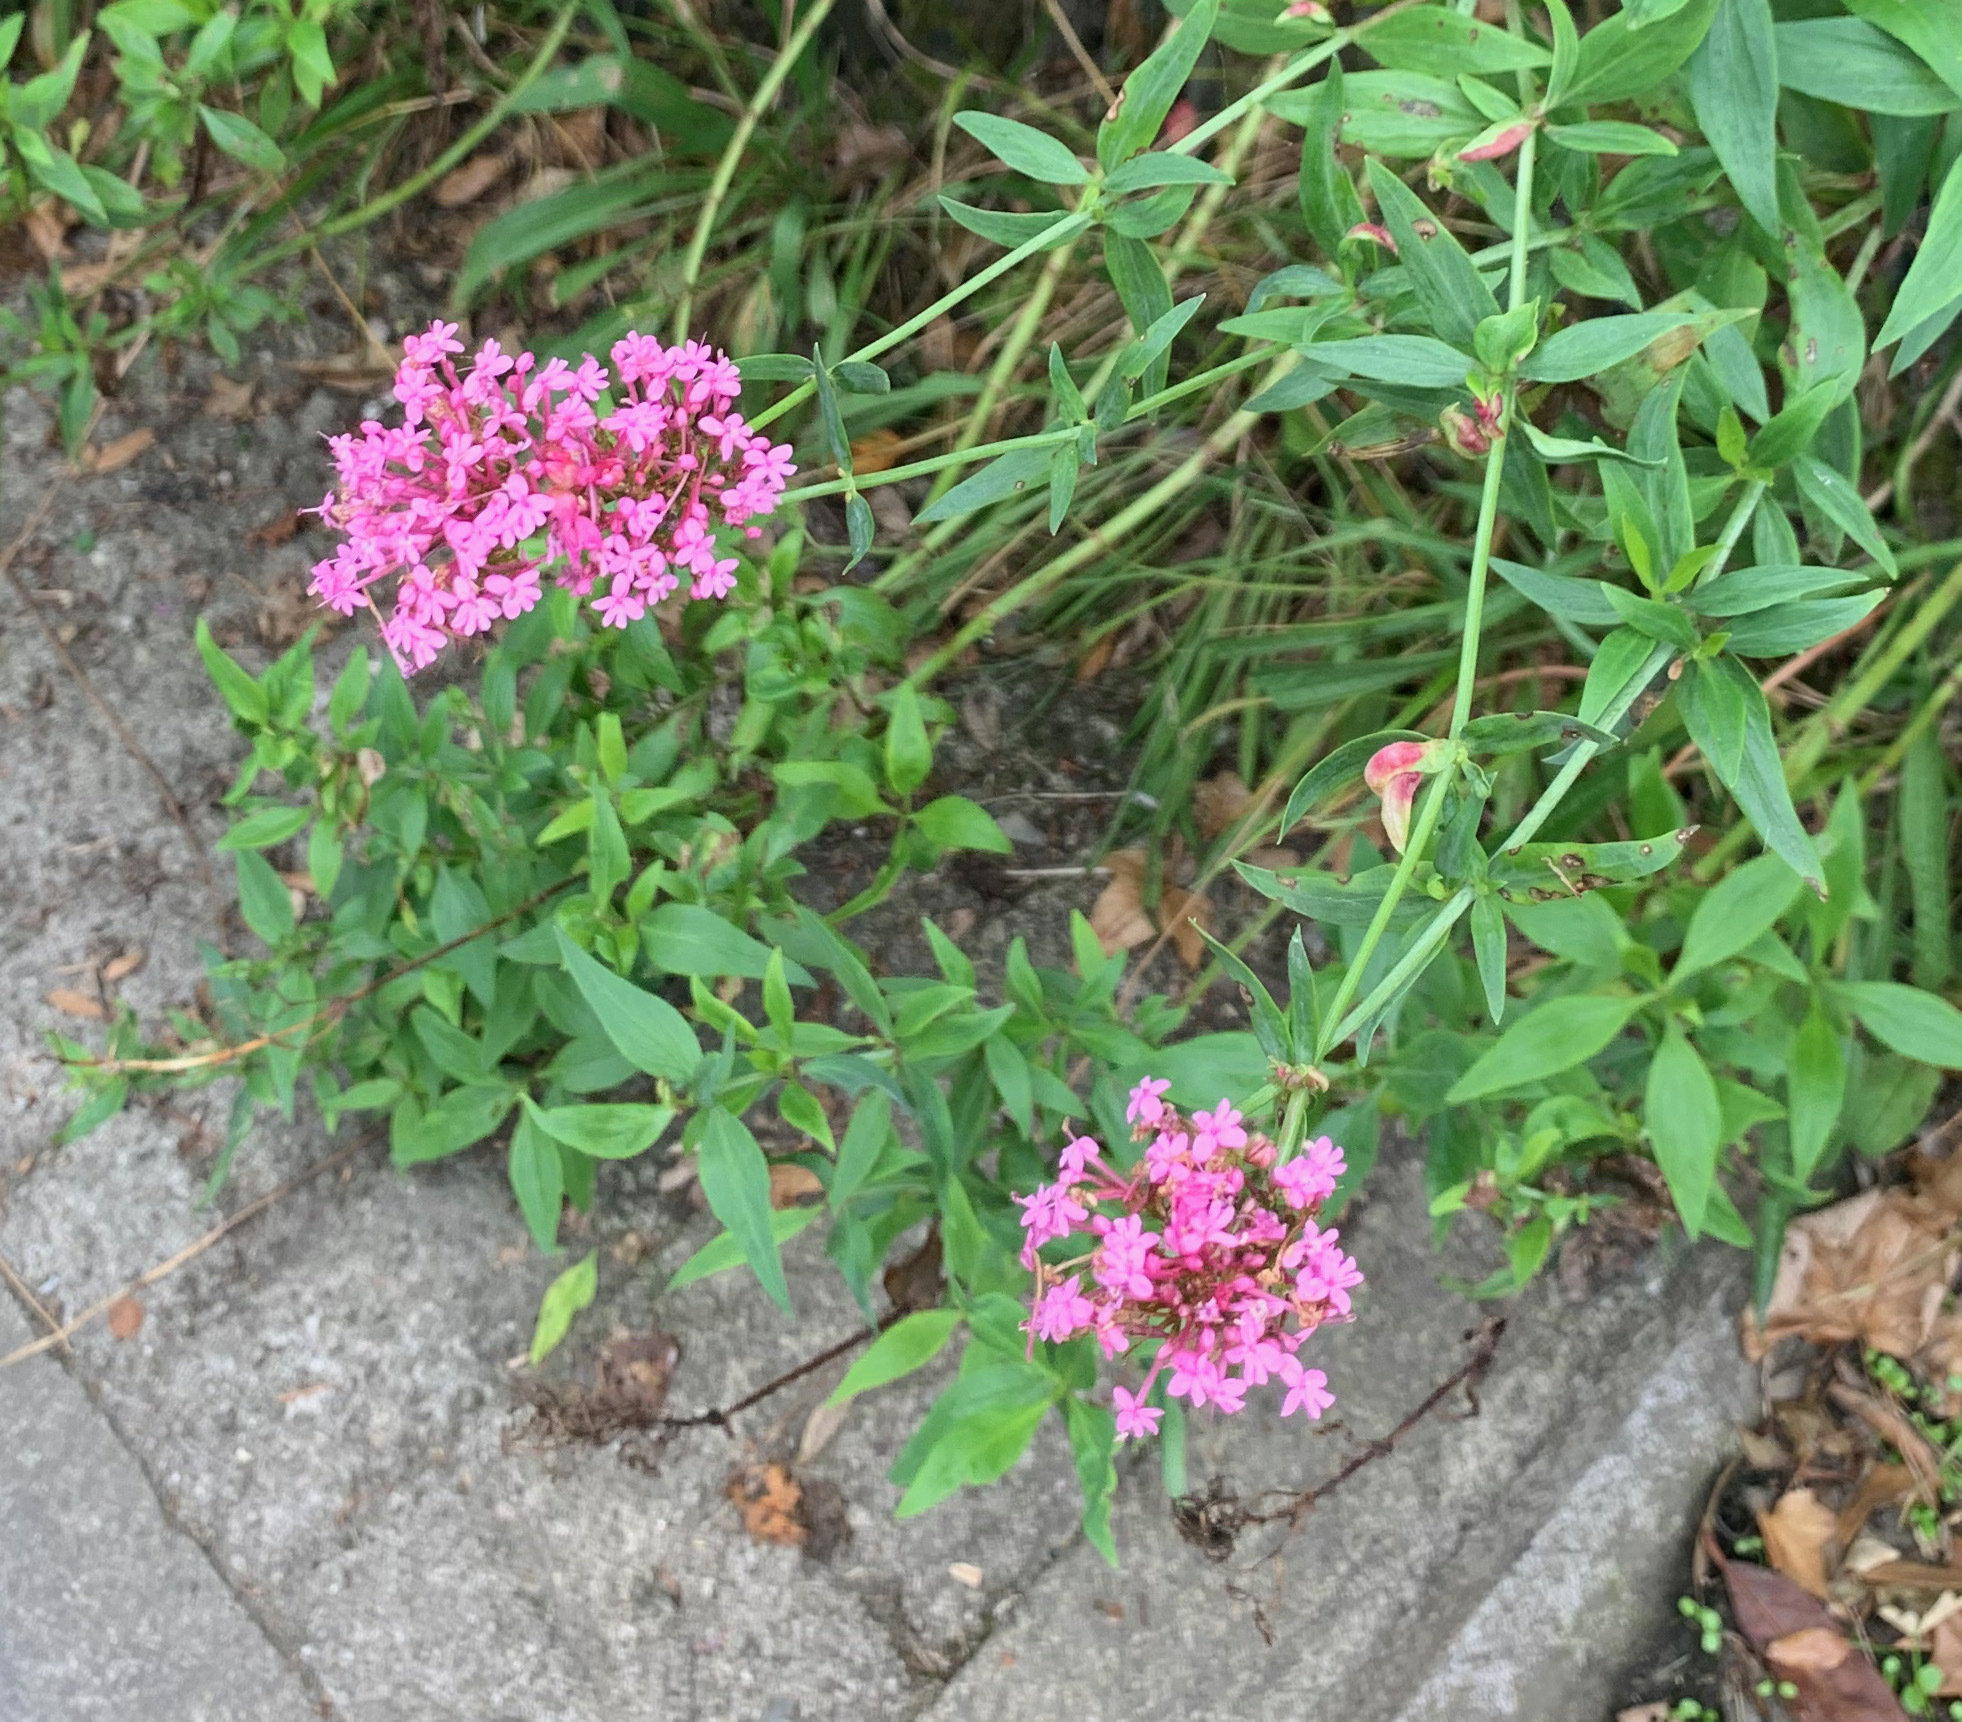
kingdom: Plantae
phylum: Tracheophyta
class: Magnoliopsida
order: Dipsacales
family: Caprifoliaceae
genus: Centranthus
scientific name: Centranthus ruber
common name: Red valerian
